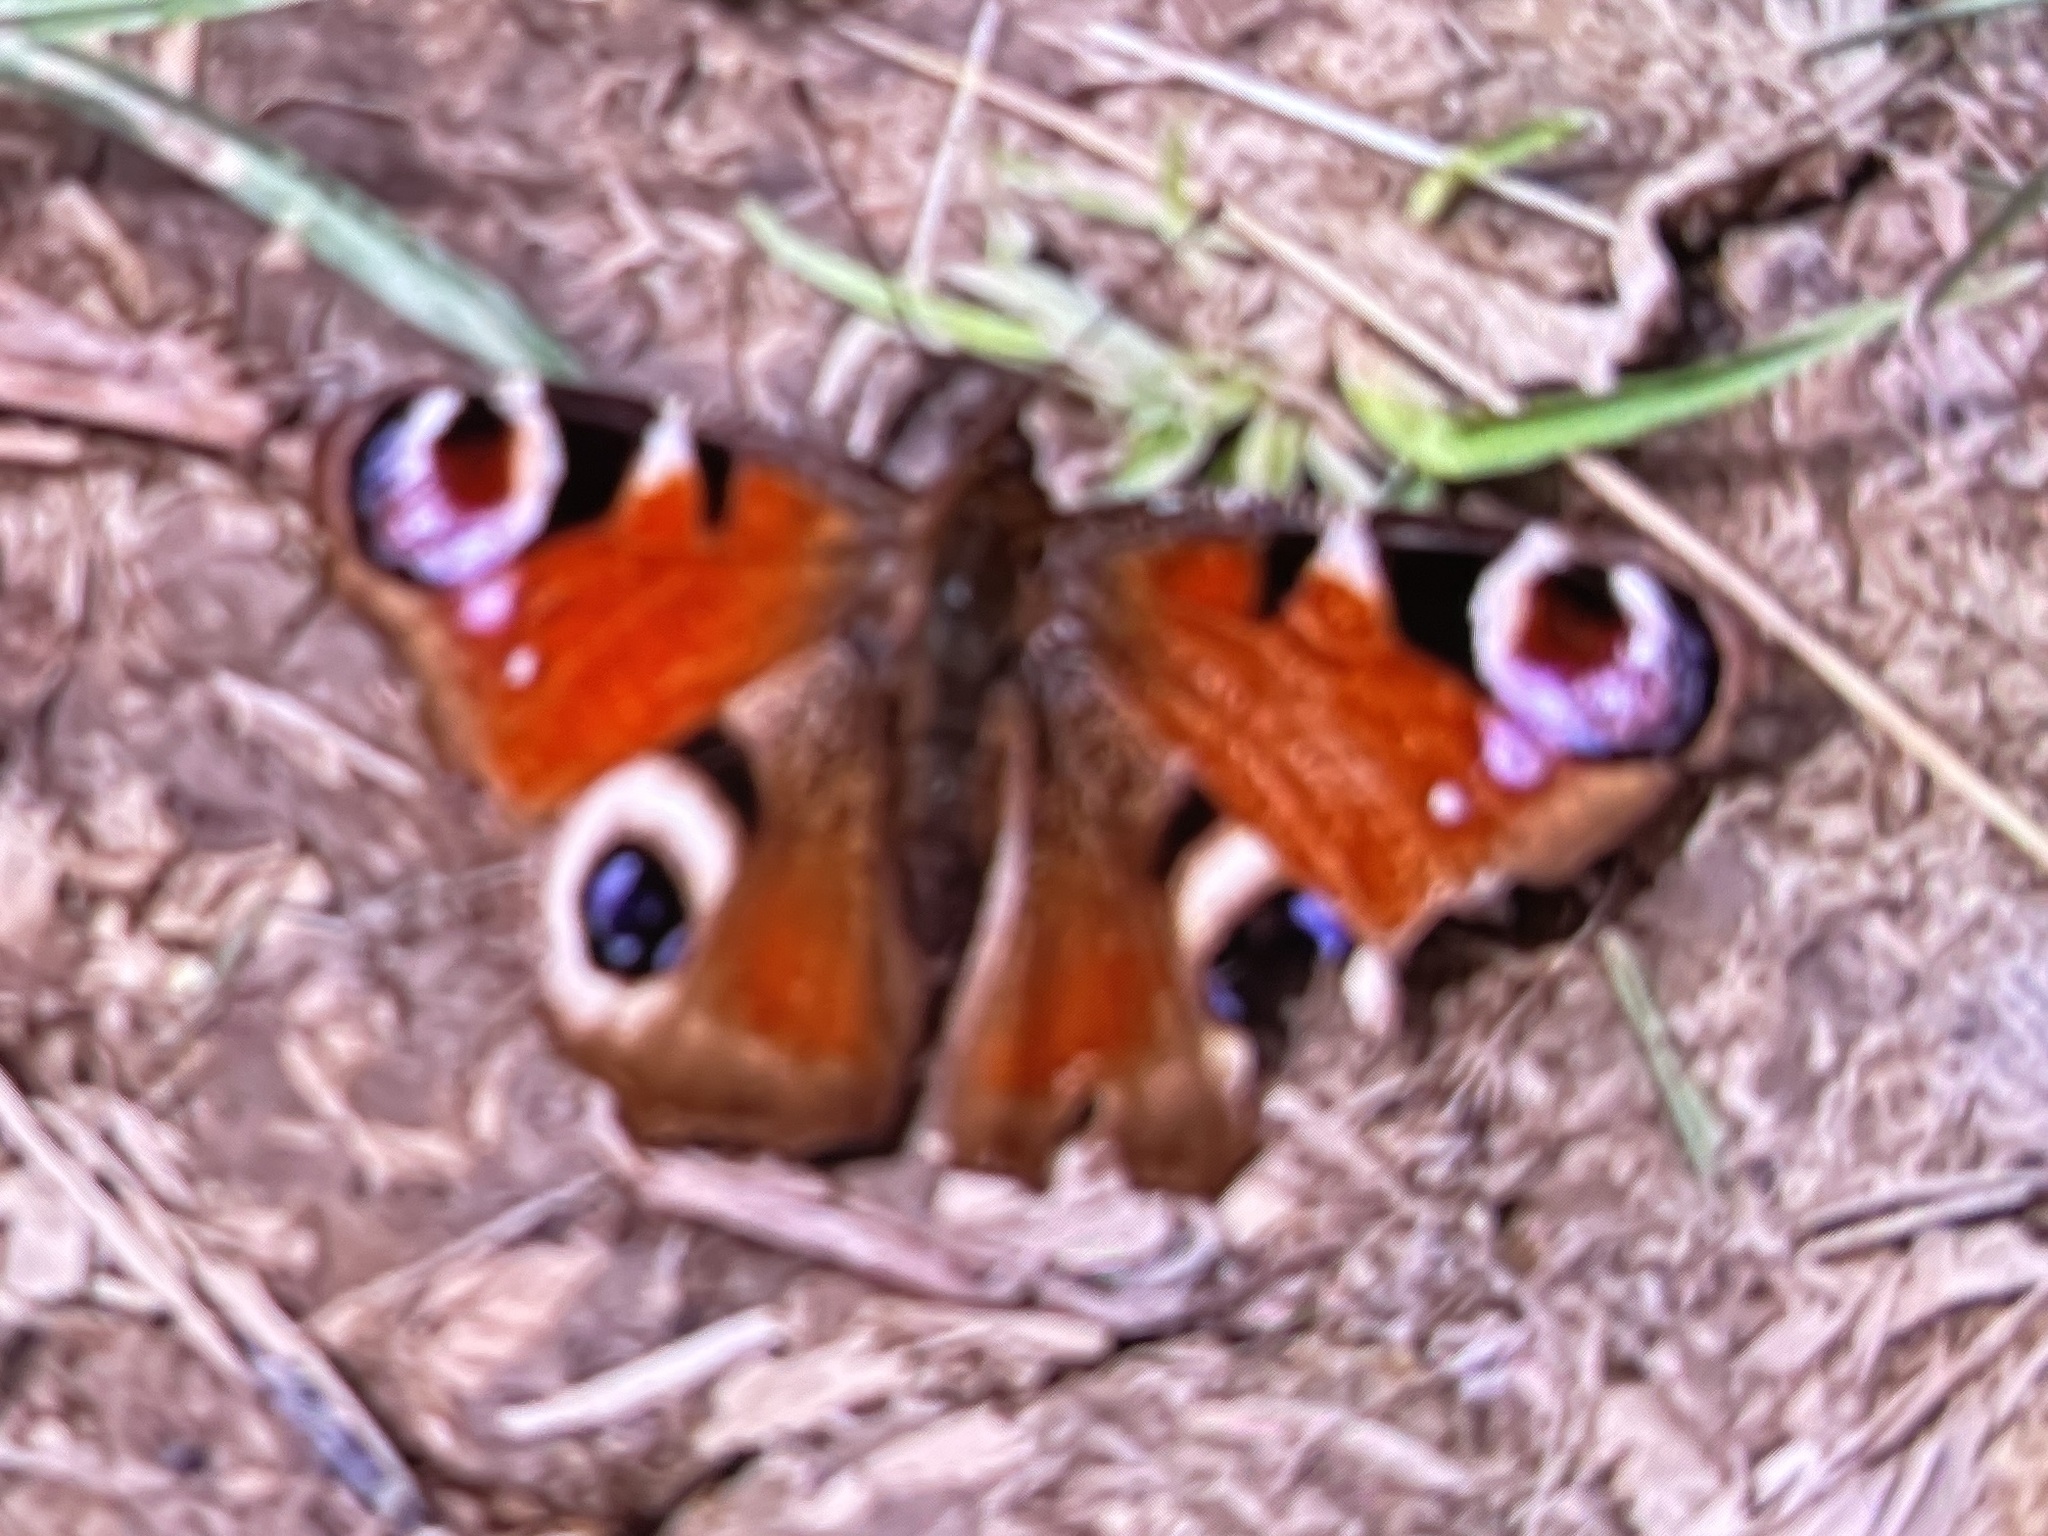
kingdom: Animalia
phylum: Arthropoda
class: Insecta
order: Lepidoptera
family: Nymphalidae
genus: Aglais
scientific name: Aglais io
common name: Peacock
